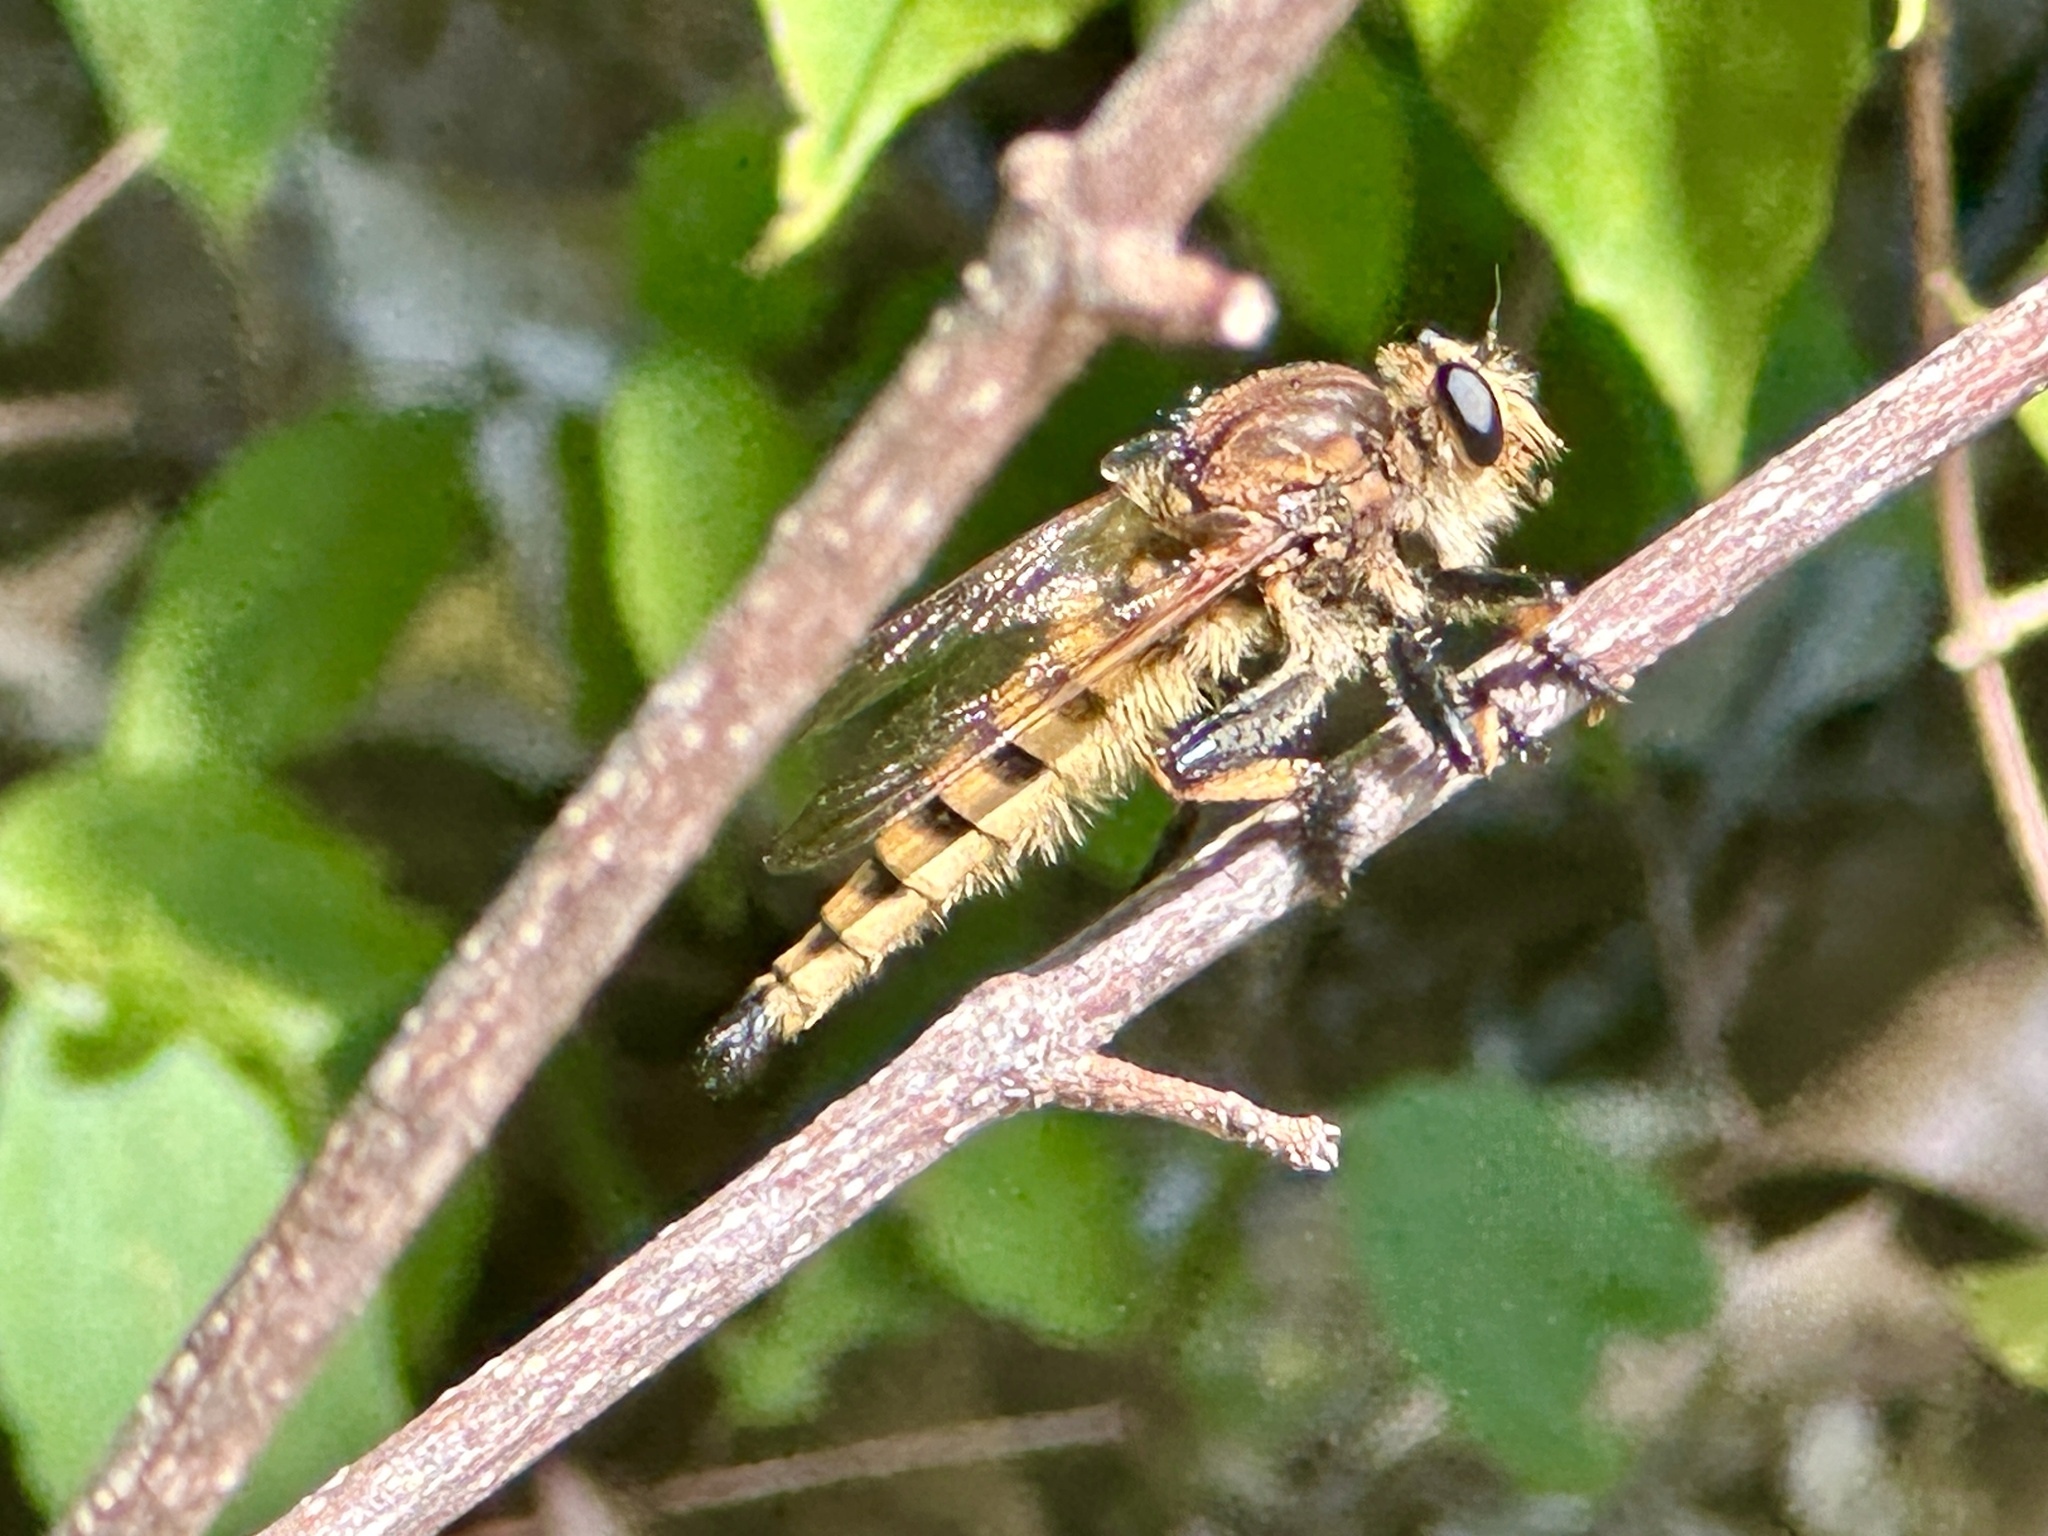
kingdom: Animalia
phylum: Arthropoda
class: Insecta
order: Diptera
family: Asilidae
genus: Promachus
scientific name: Promachus rufipes
